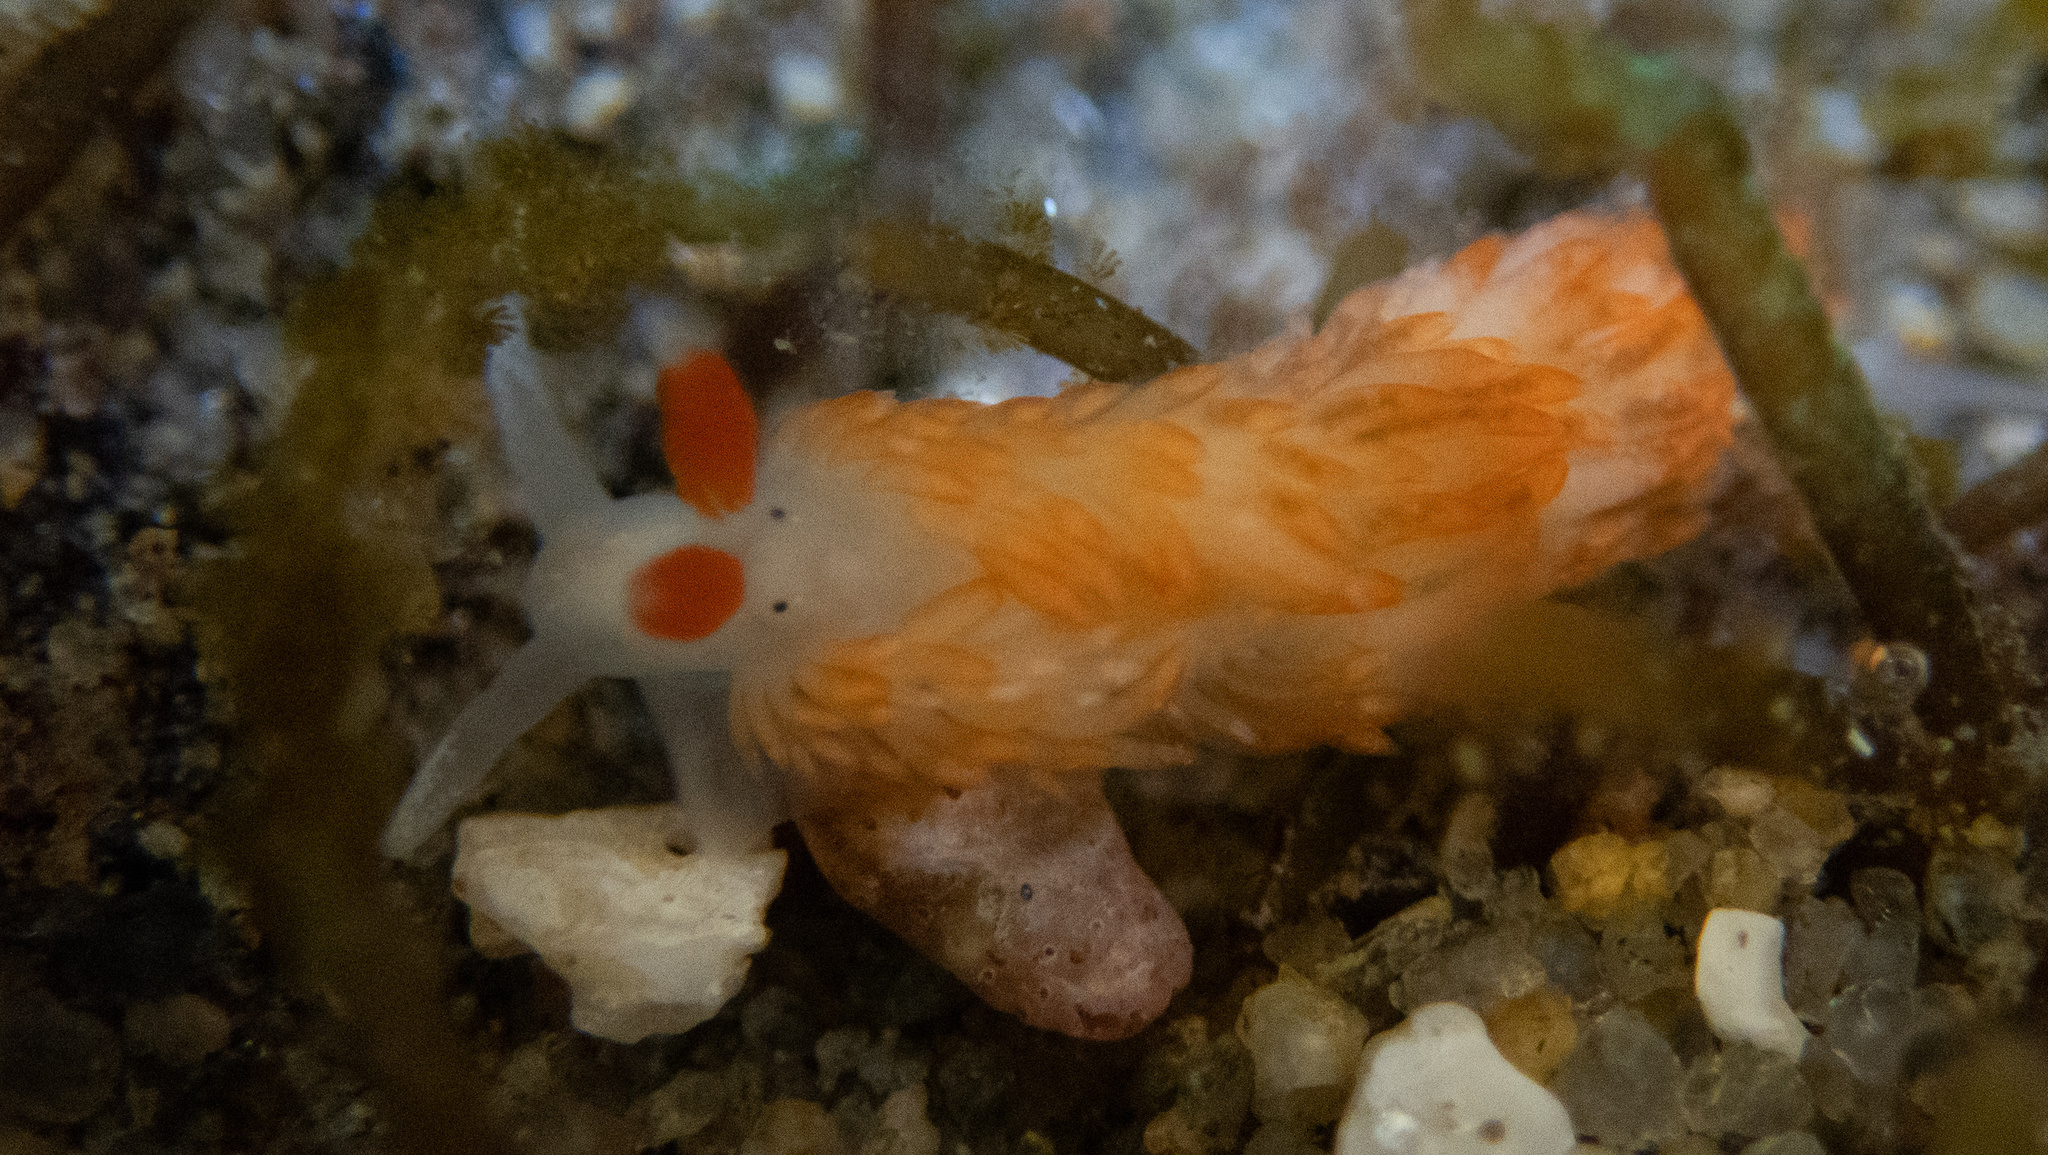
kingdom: Animalia
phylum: Mollusca
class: Gastropoda
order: Nudibranchia
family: Aeolidiidae
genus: Anteaeolidiella
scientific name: Anteaeolidiella oliviae
